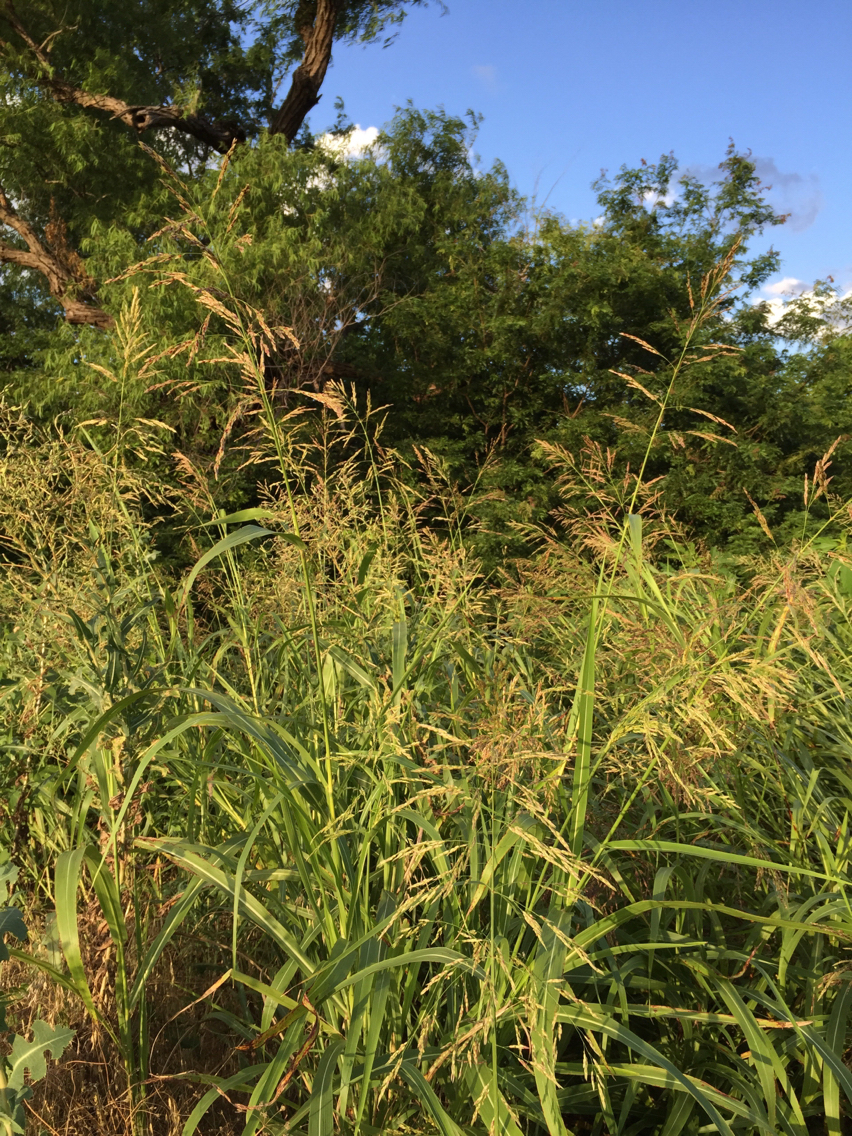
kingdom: Plantae
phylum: Tracheophyta
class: Liliopsida
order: Poales
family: Poaceae
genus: Sorghum
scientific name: Sorghum halepense
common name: Johnson-grass
